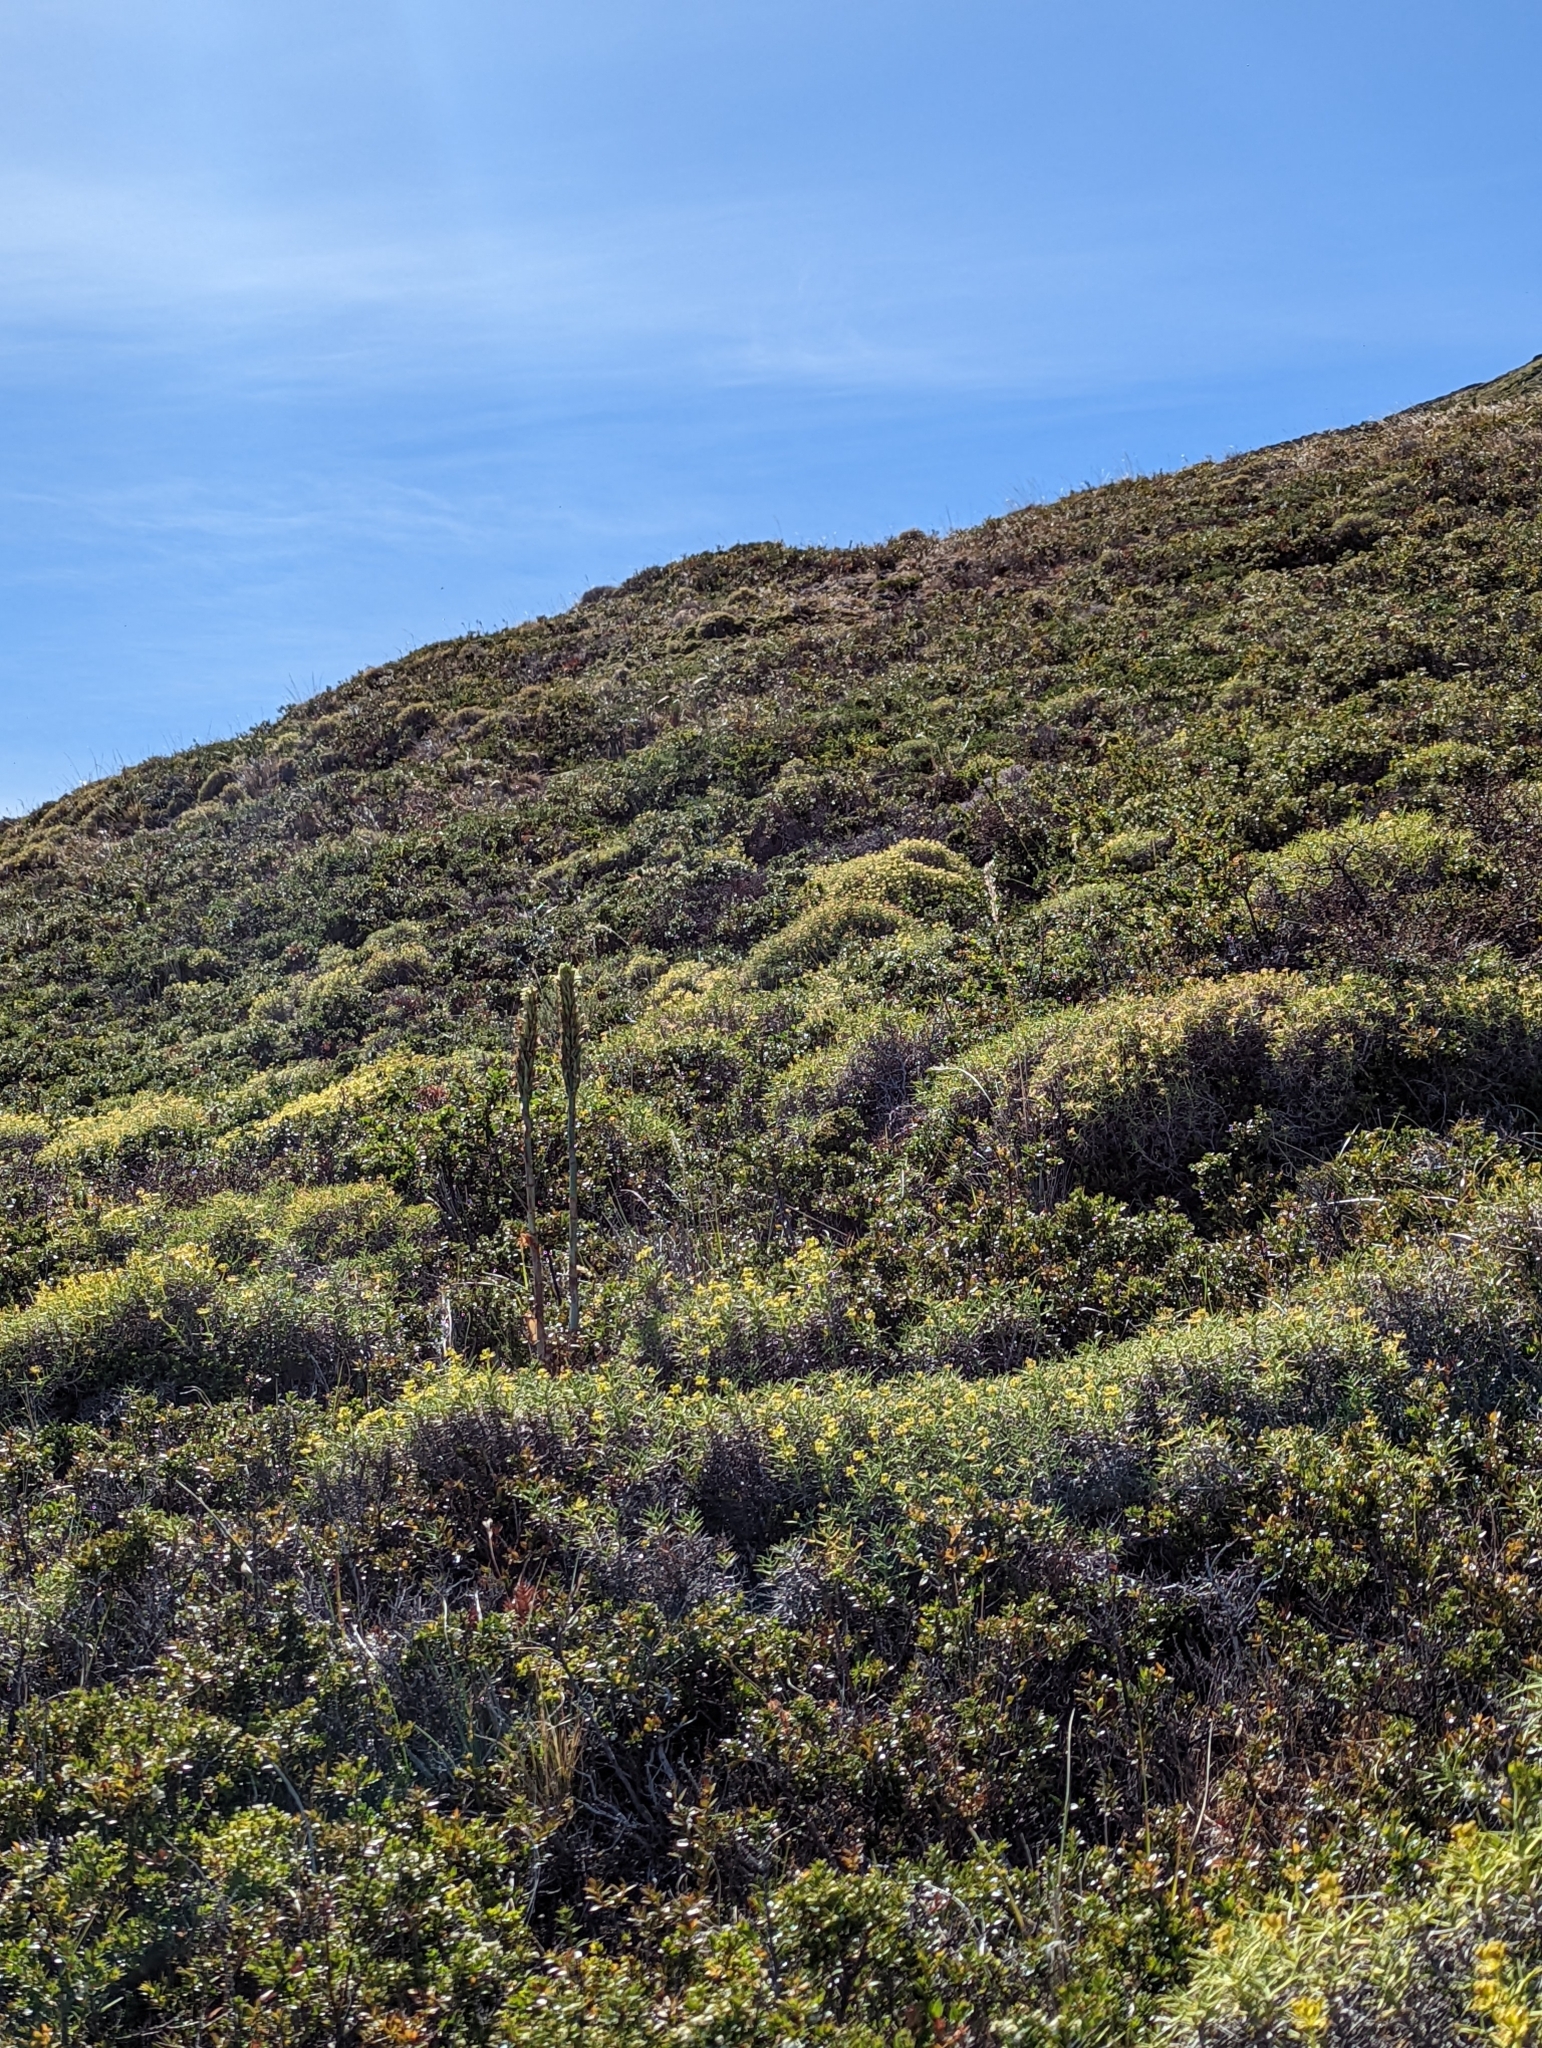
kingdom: Plantae
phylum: Tracheophyta
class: Liliopsida
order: Asparagales
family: Orchidaceae
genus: Chloraea
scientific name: Chloraea cylindrostachya
